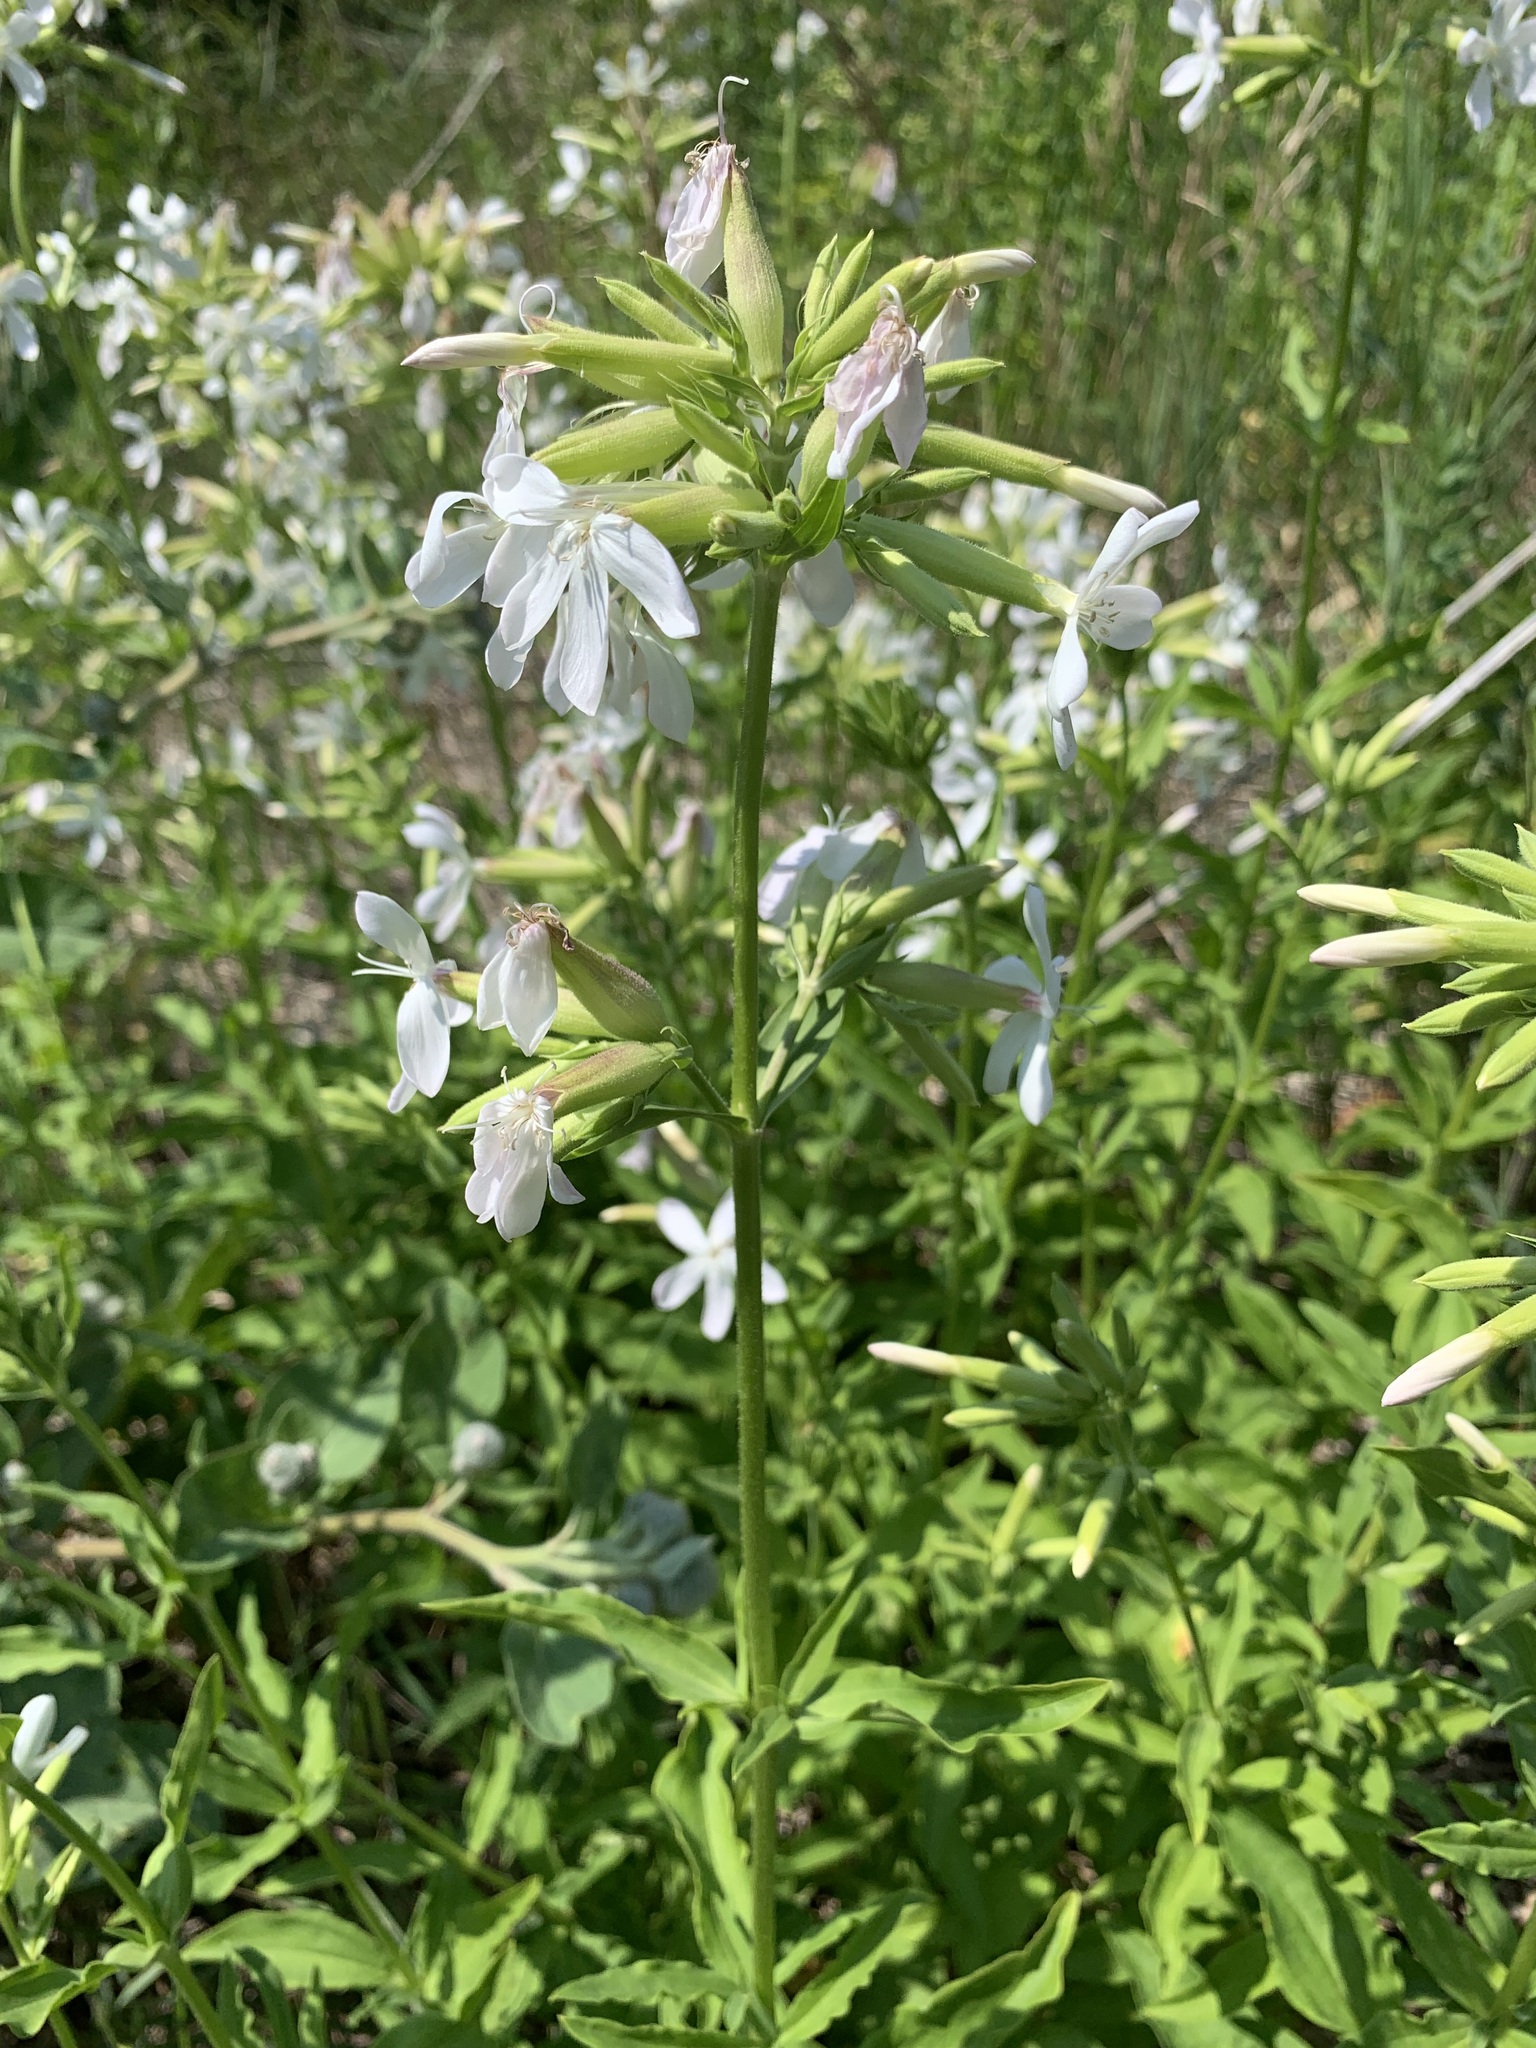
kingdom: Plantae
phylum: Tracheophyta
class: Magnoliopsida
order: Caryophyllales
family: Caryophyllaceae
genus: Saponaria
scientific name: Saponaria officinalis
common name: Soapwort
